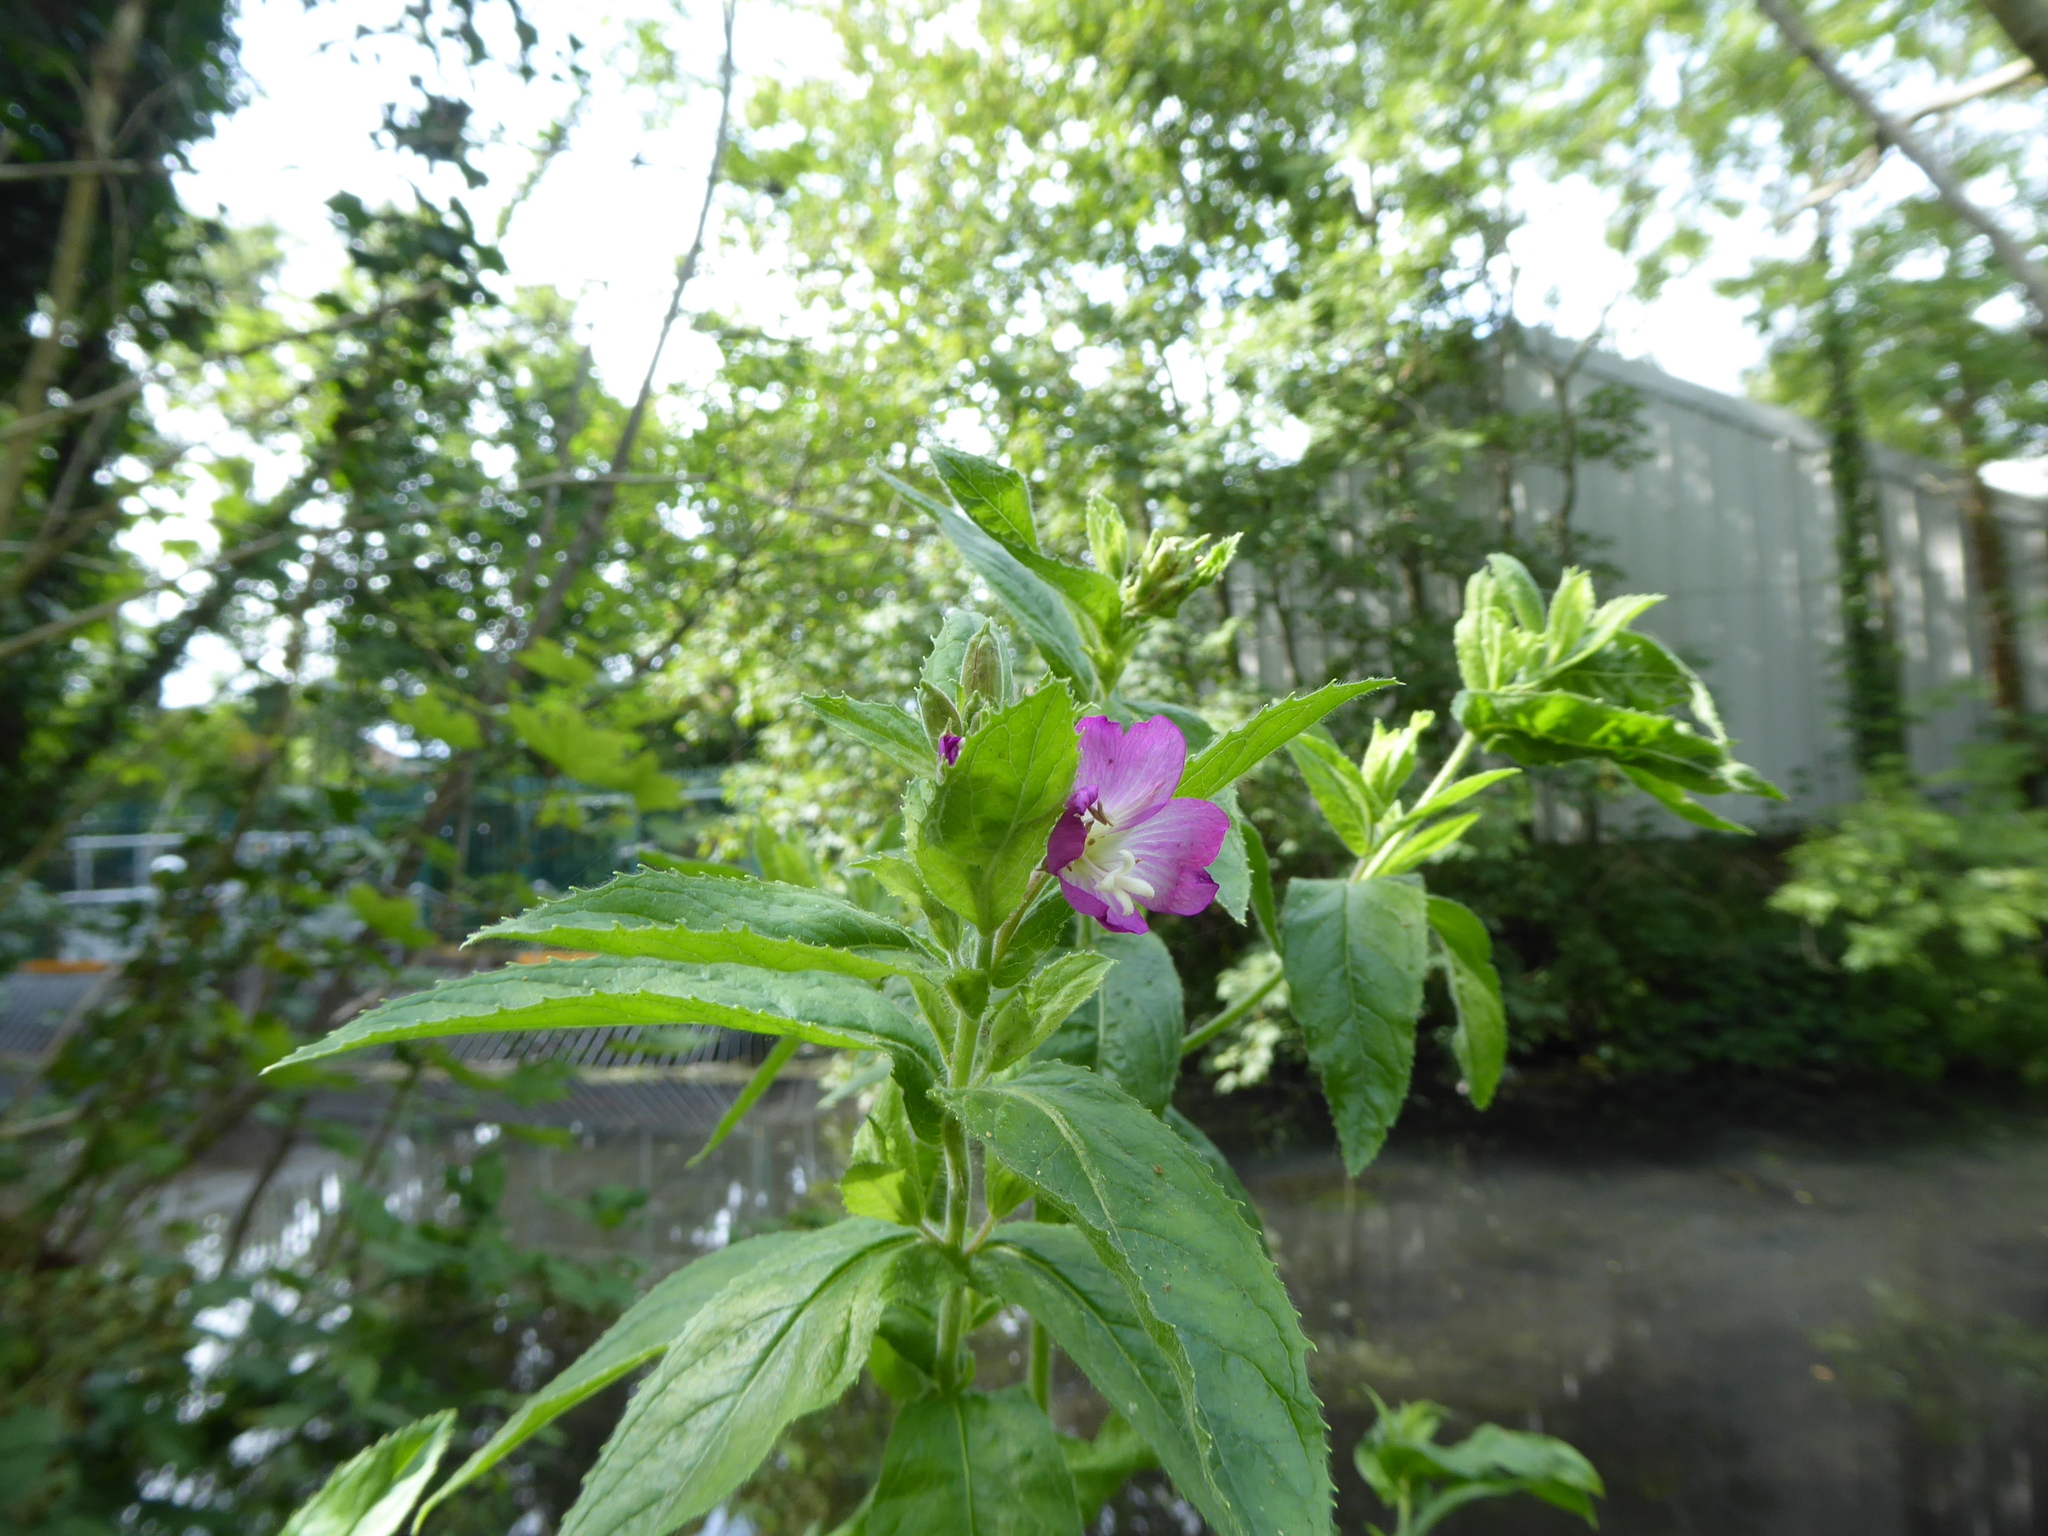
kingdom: Plantae
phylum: Tracheophyta
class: Magnoliopsida
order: Myrtales
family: Onagraceae
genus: Epilobium
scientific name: Epilobium hirsutum
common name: Great willowherb
